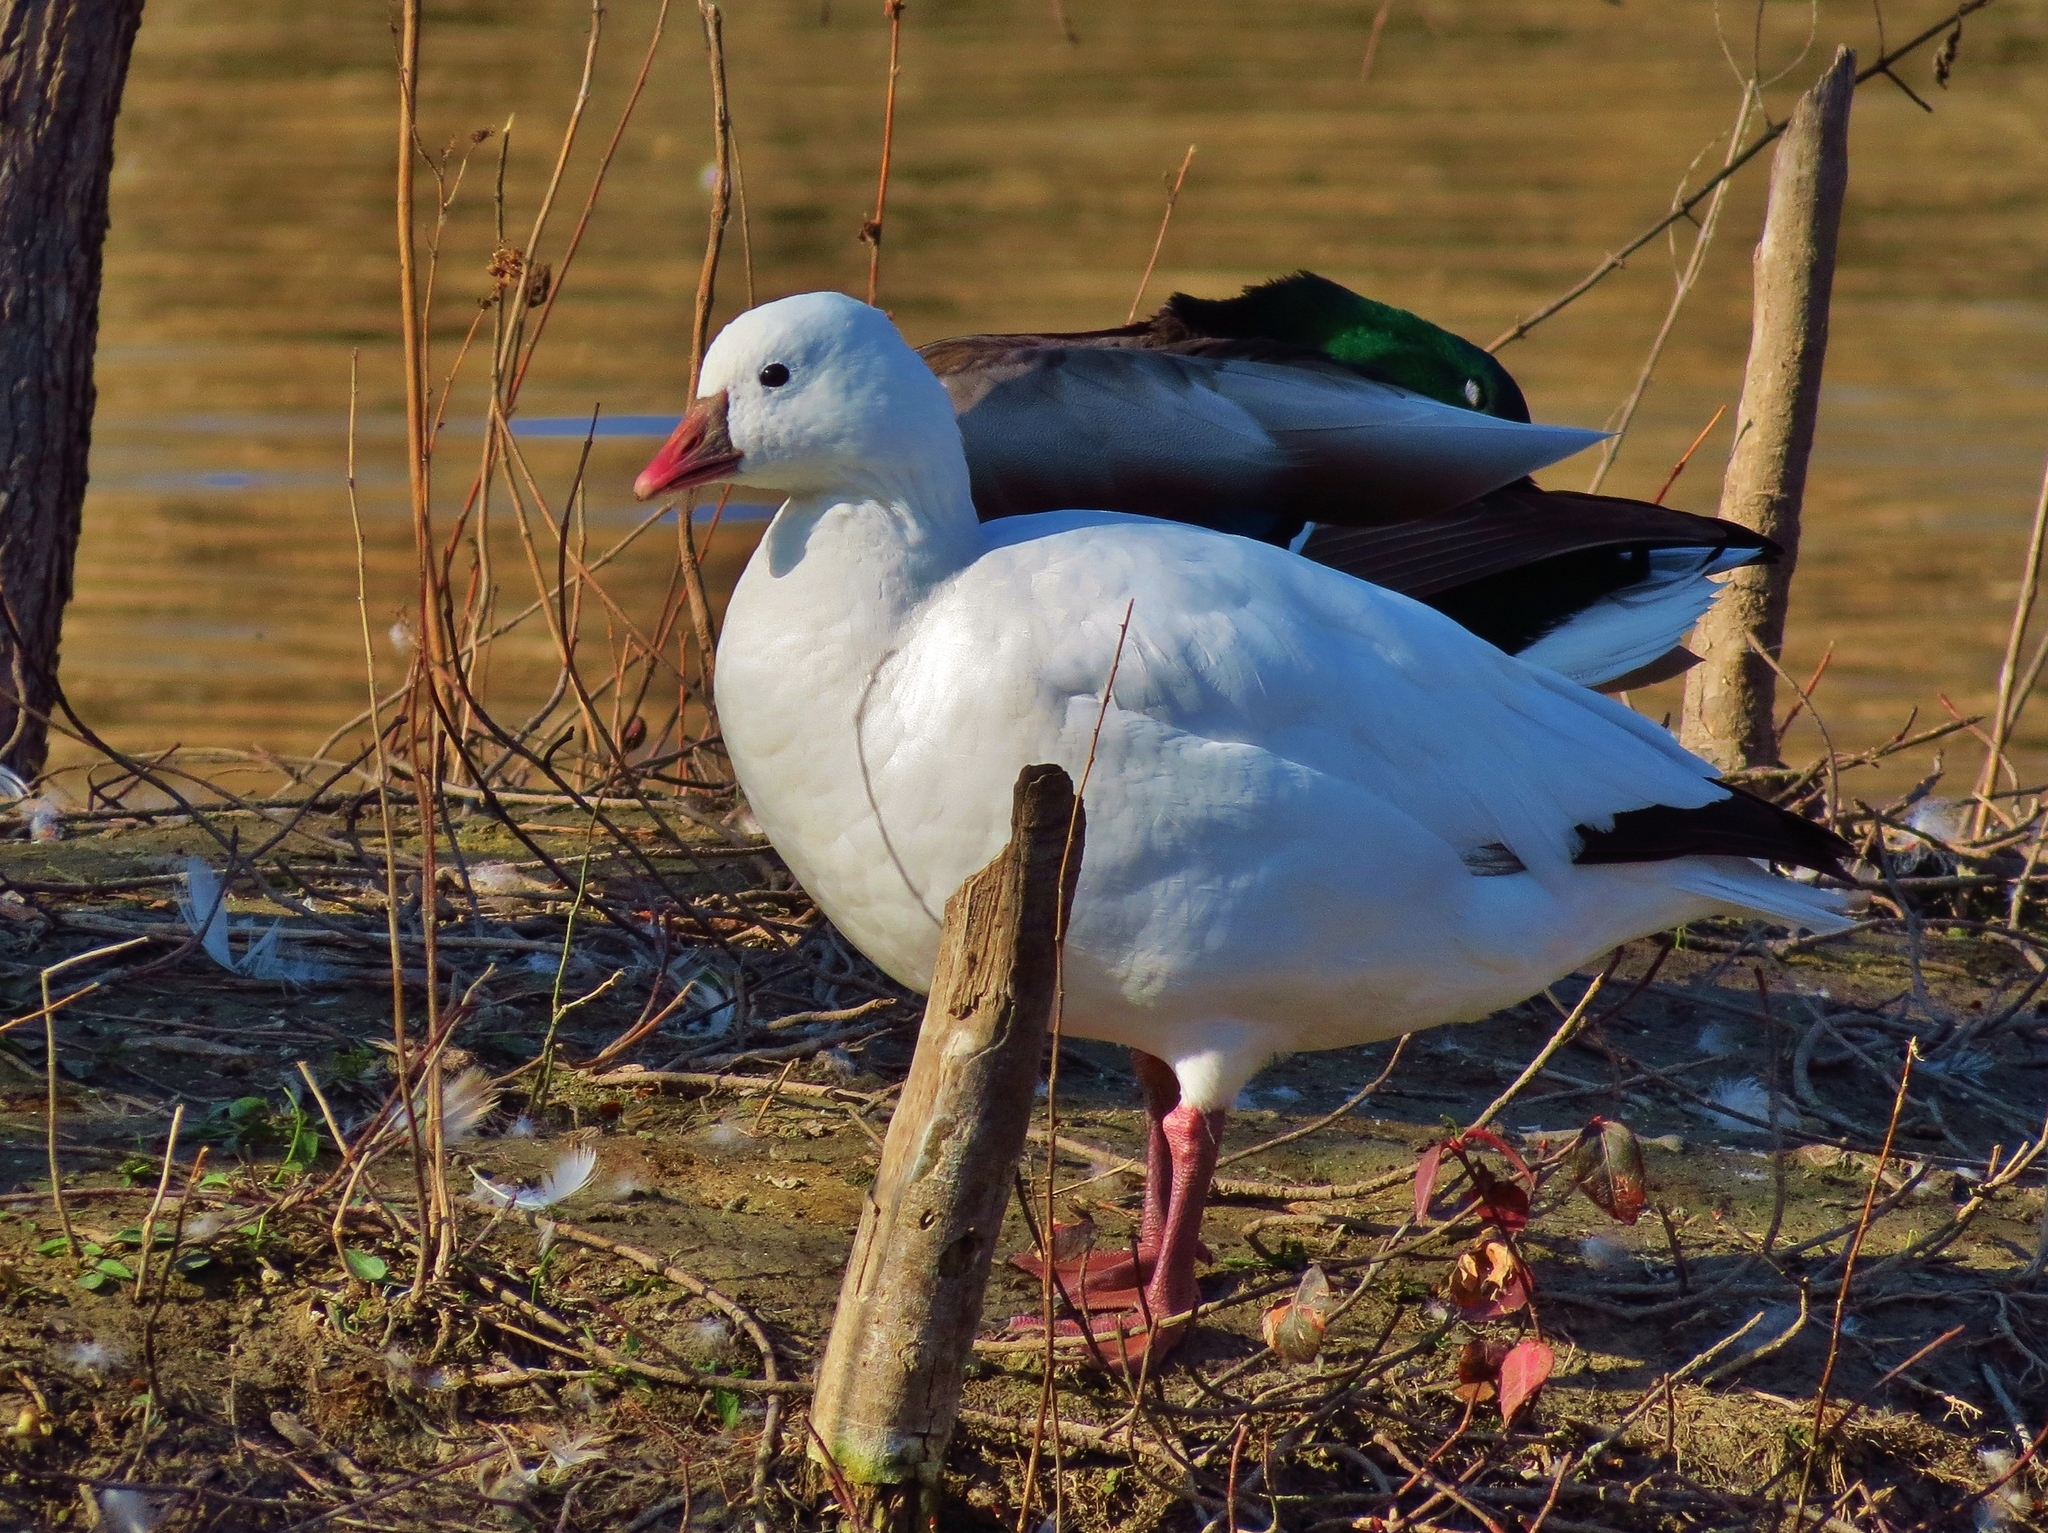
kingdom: Animalia
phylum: Chordata
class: Aves
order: Anseriformes
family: Anatidae
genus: Anser
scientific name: Anser rossii
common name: Ross's goose
